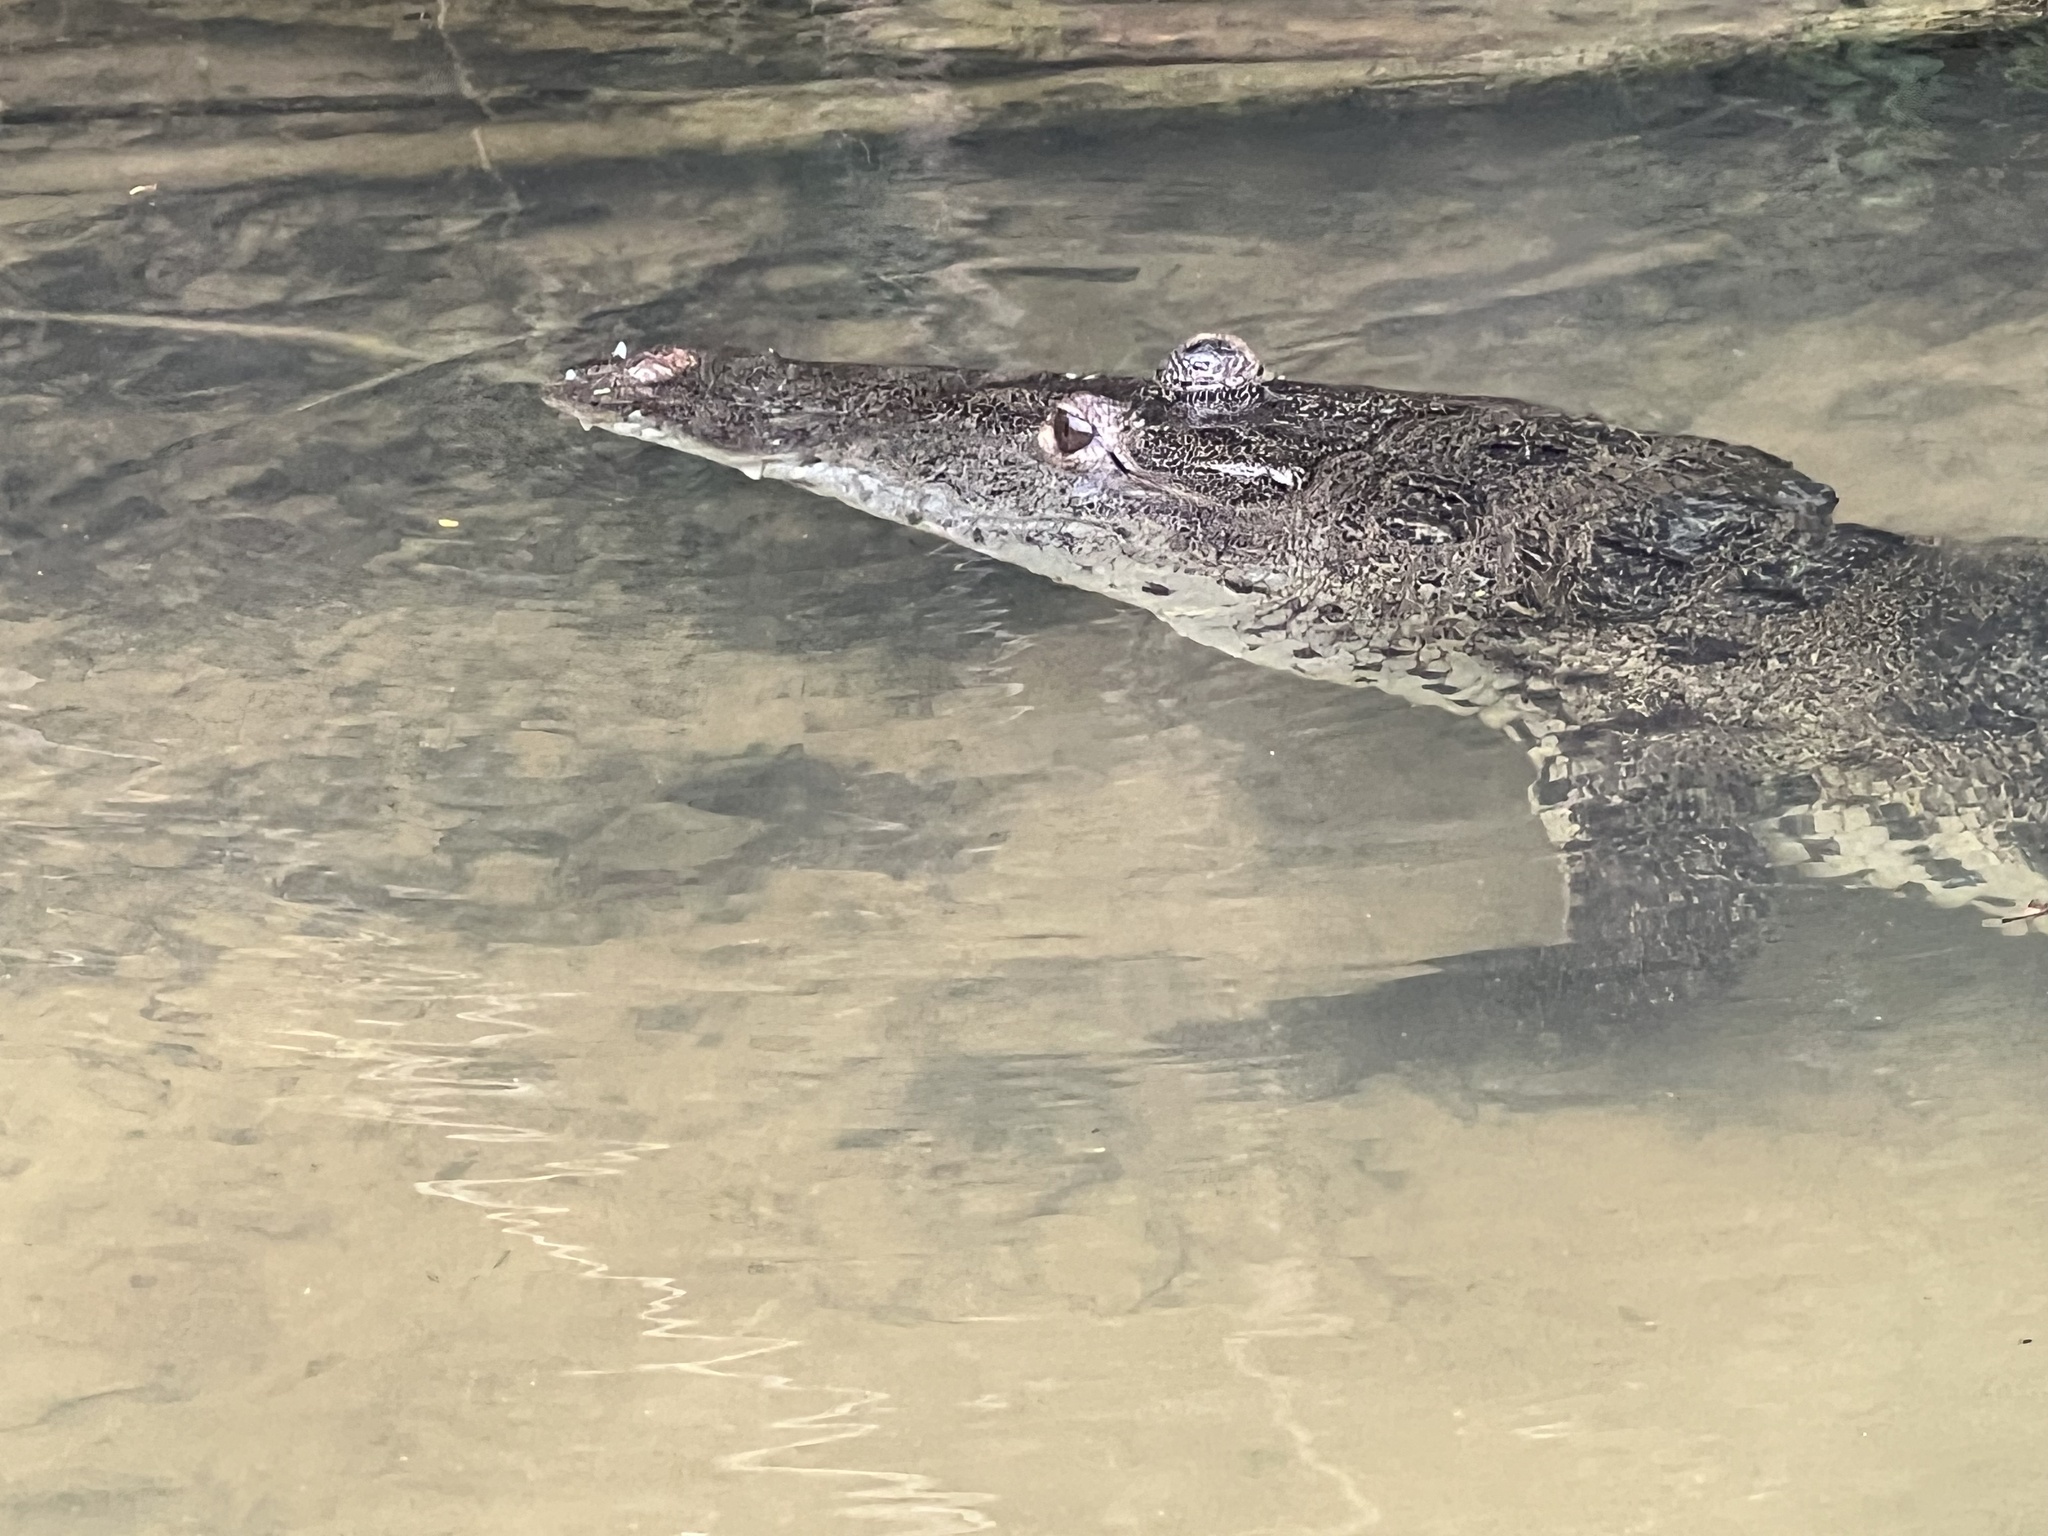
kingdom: Animalia
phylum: Chordata
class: Crocodylia
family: Crocodylidae
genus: Crocodylus
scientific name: Crocodylus moreletii
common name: Morelet's crocodile
